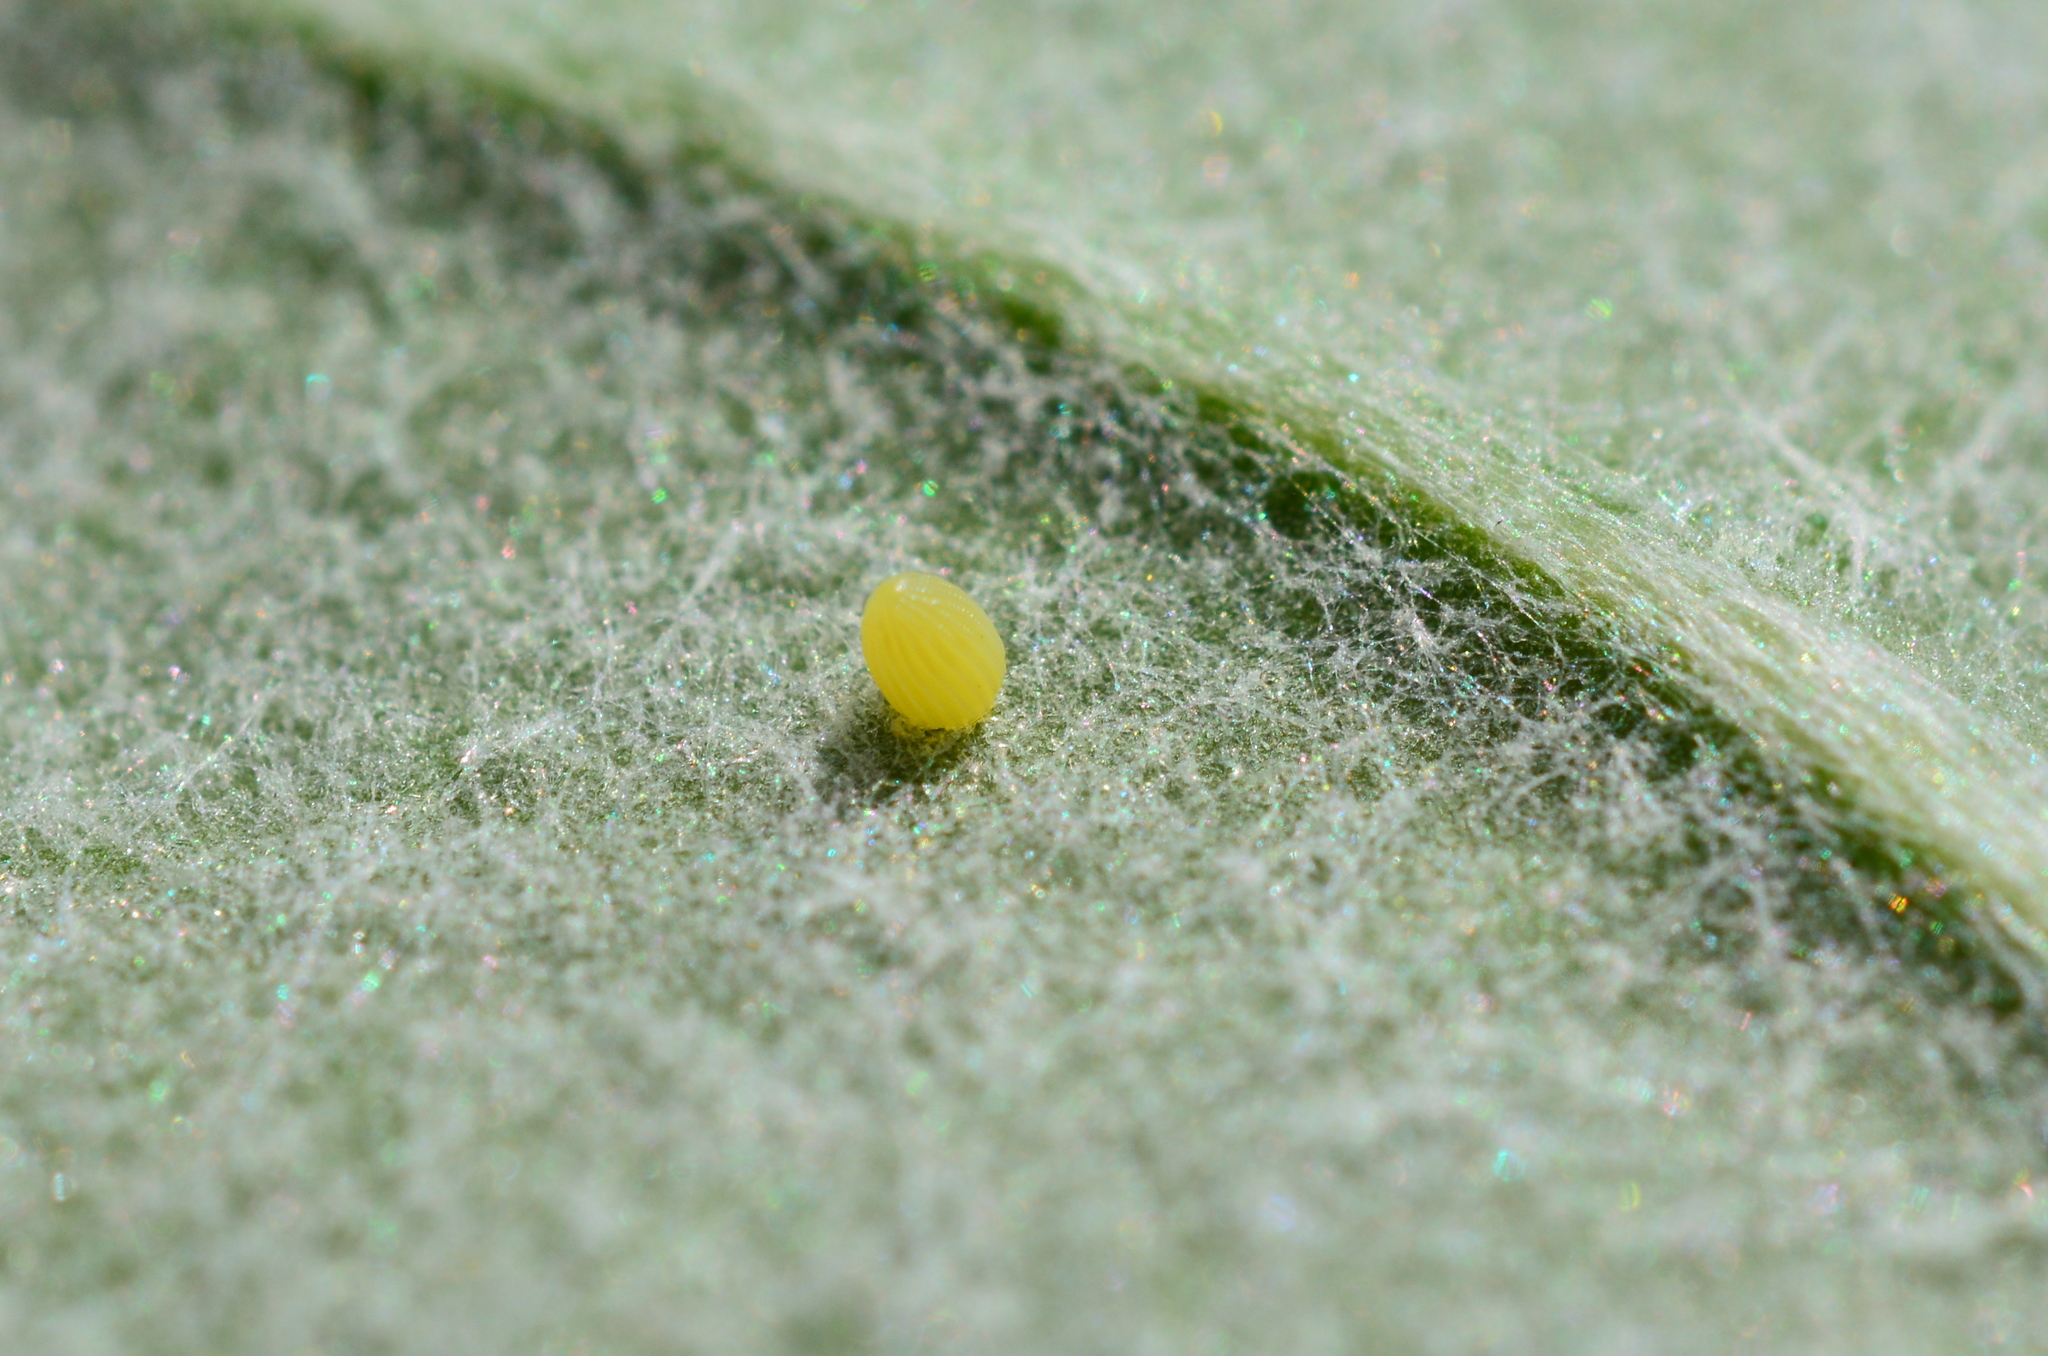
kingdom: Animalia
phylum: Arthropoda
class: Insecta
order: Lepidoptera
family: Nymphalidae
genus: Danaus
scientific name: Danaus plexippus
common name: Monarch
